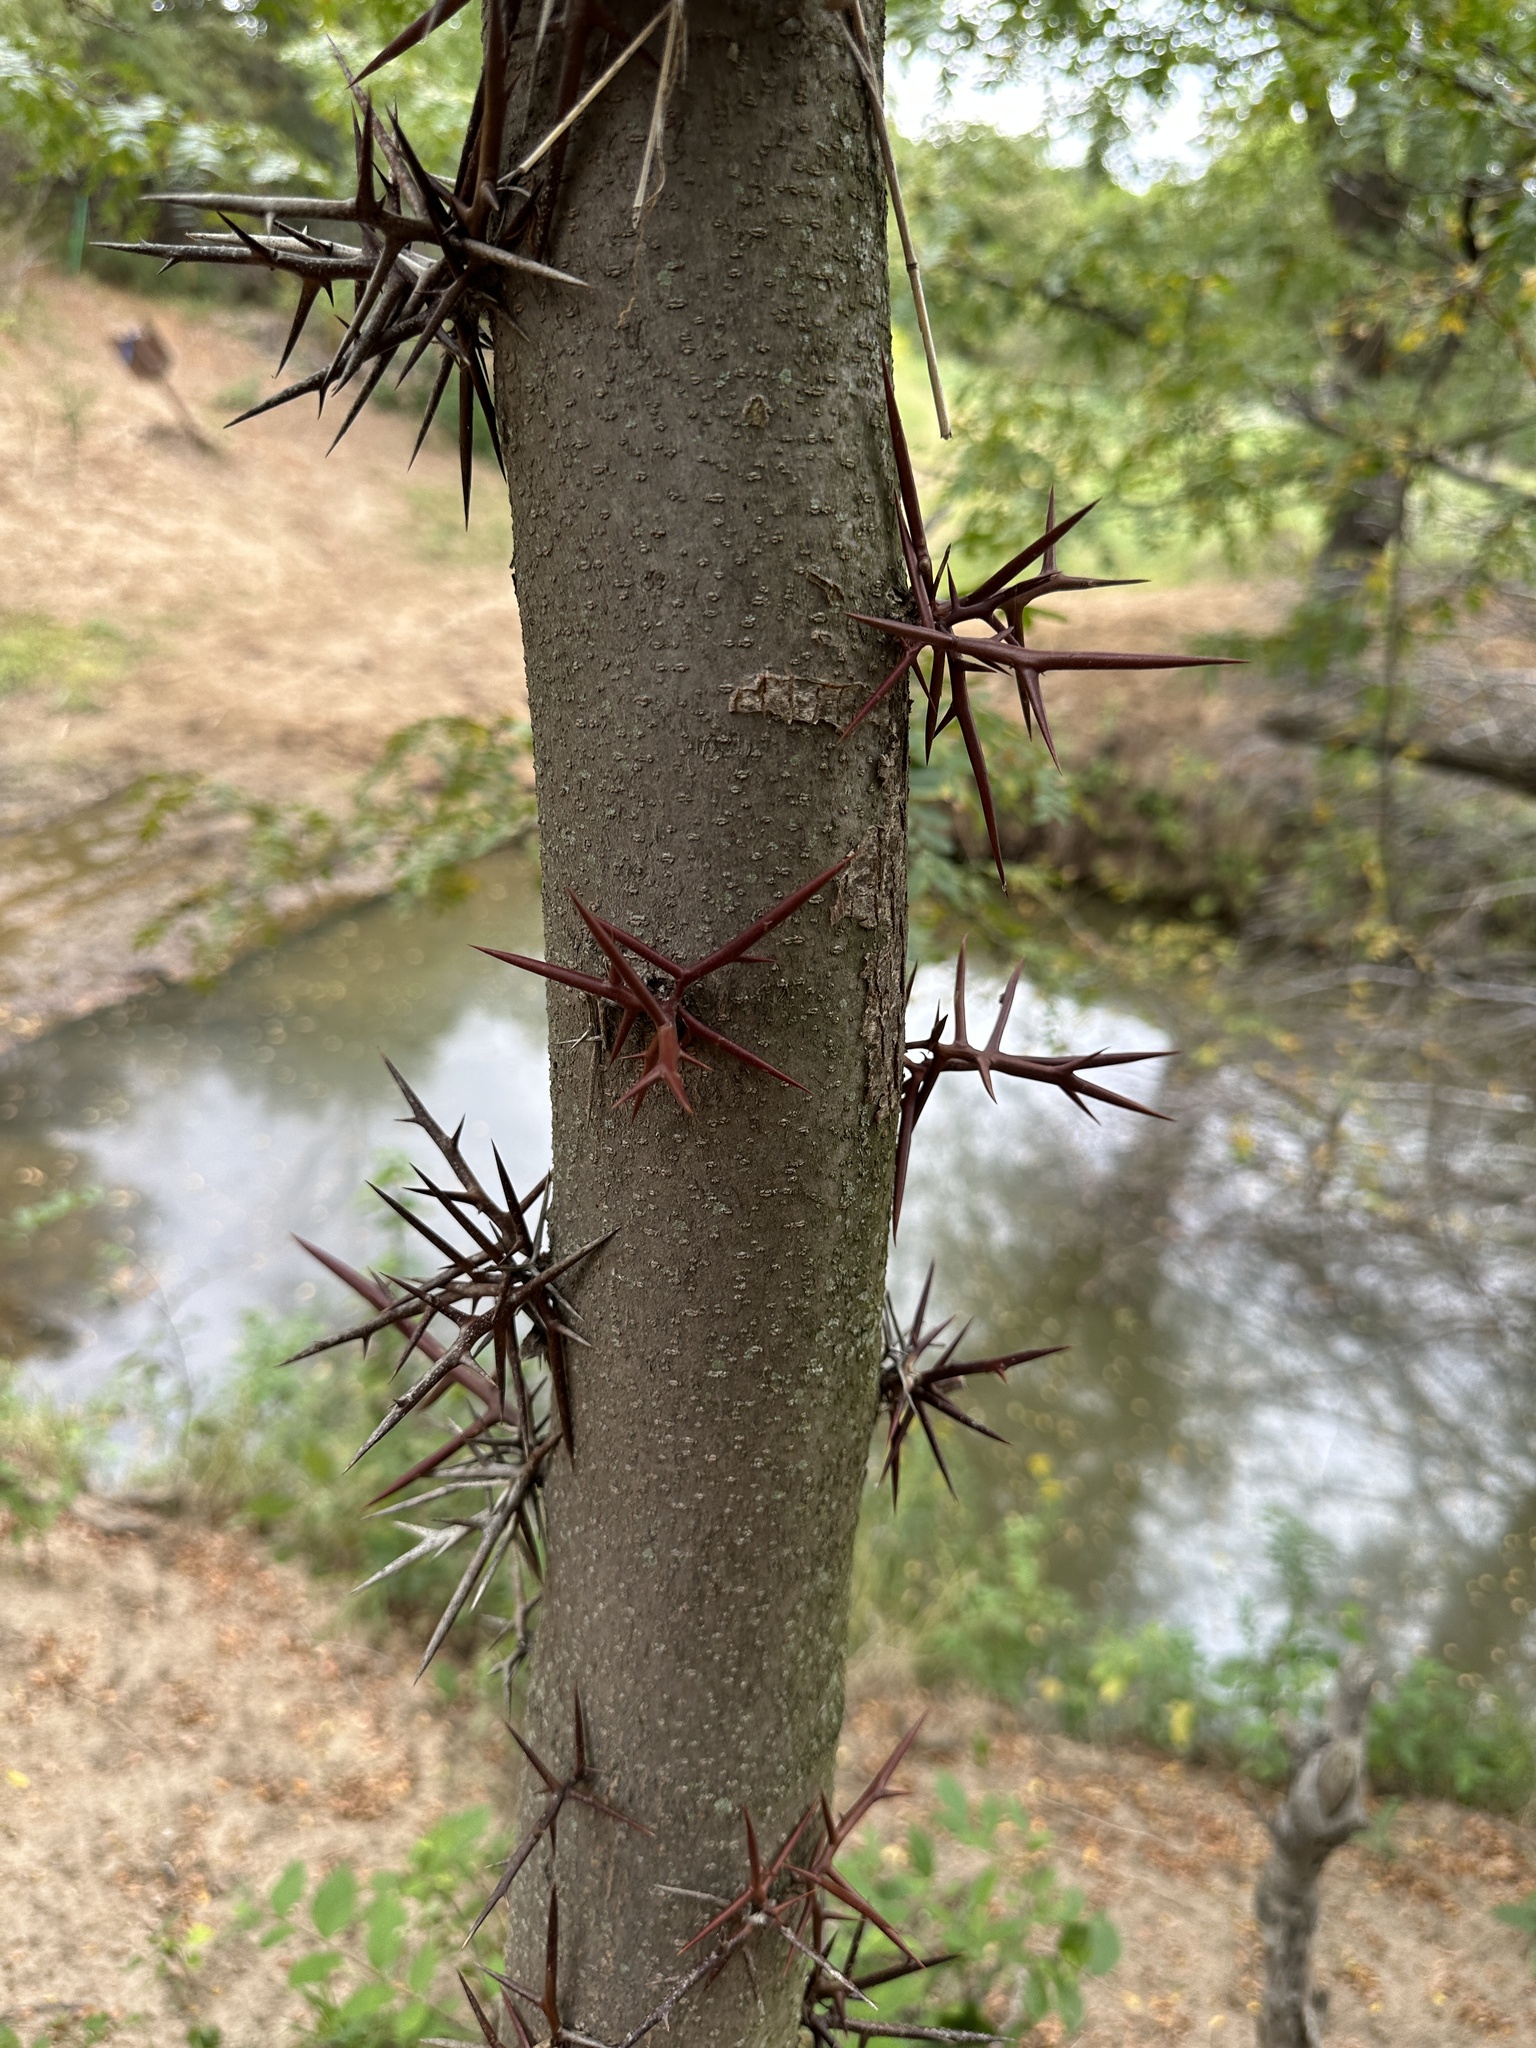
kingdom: Plantae
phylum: Tracheophyta
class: Magnoliopsida
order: Fabales
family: Fabaceae
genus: Gleditsia
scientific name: Gleditsia triacanthos
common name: Common honeylocust
